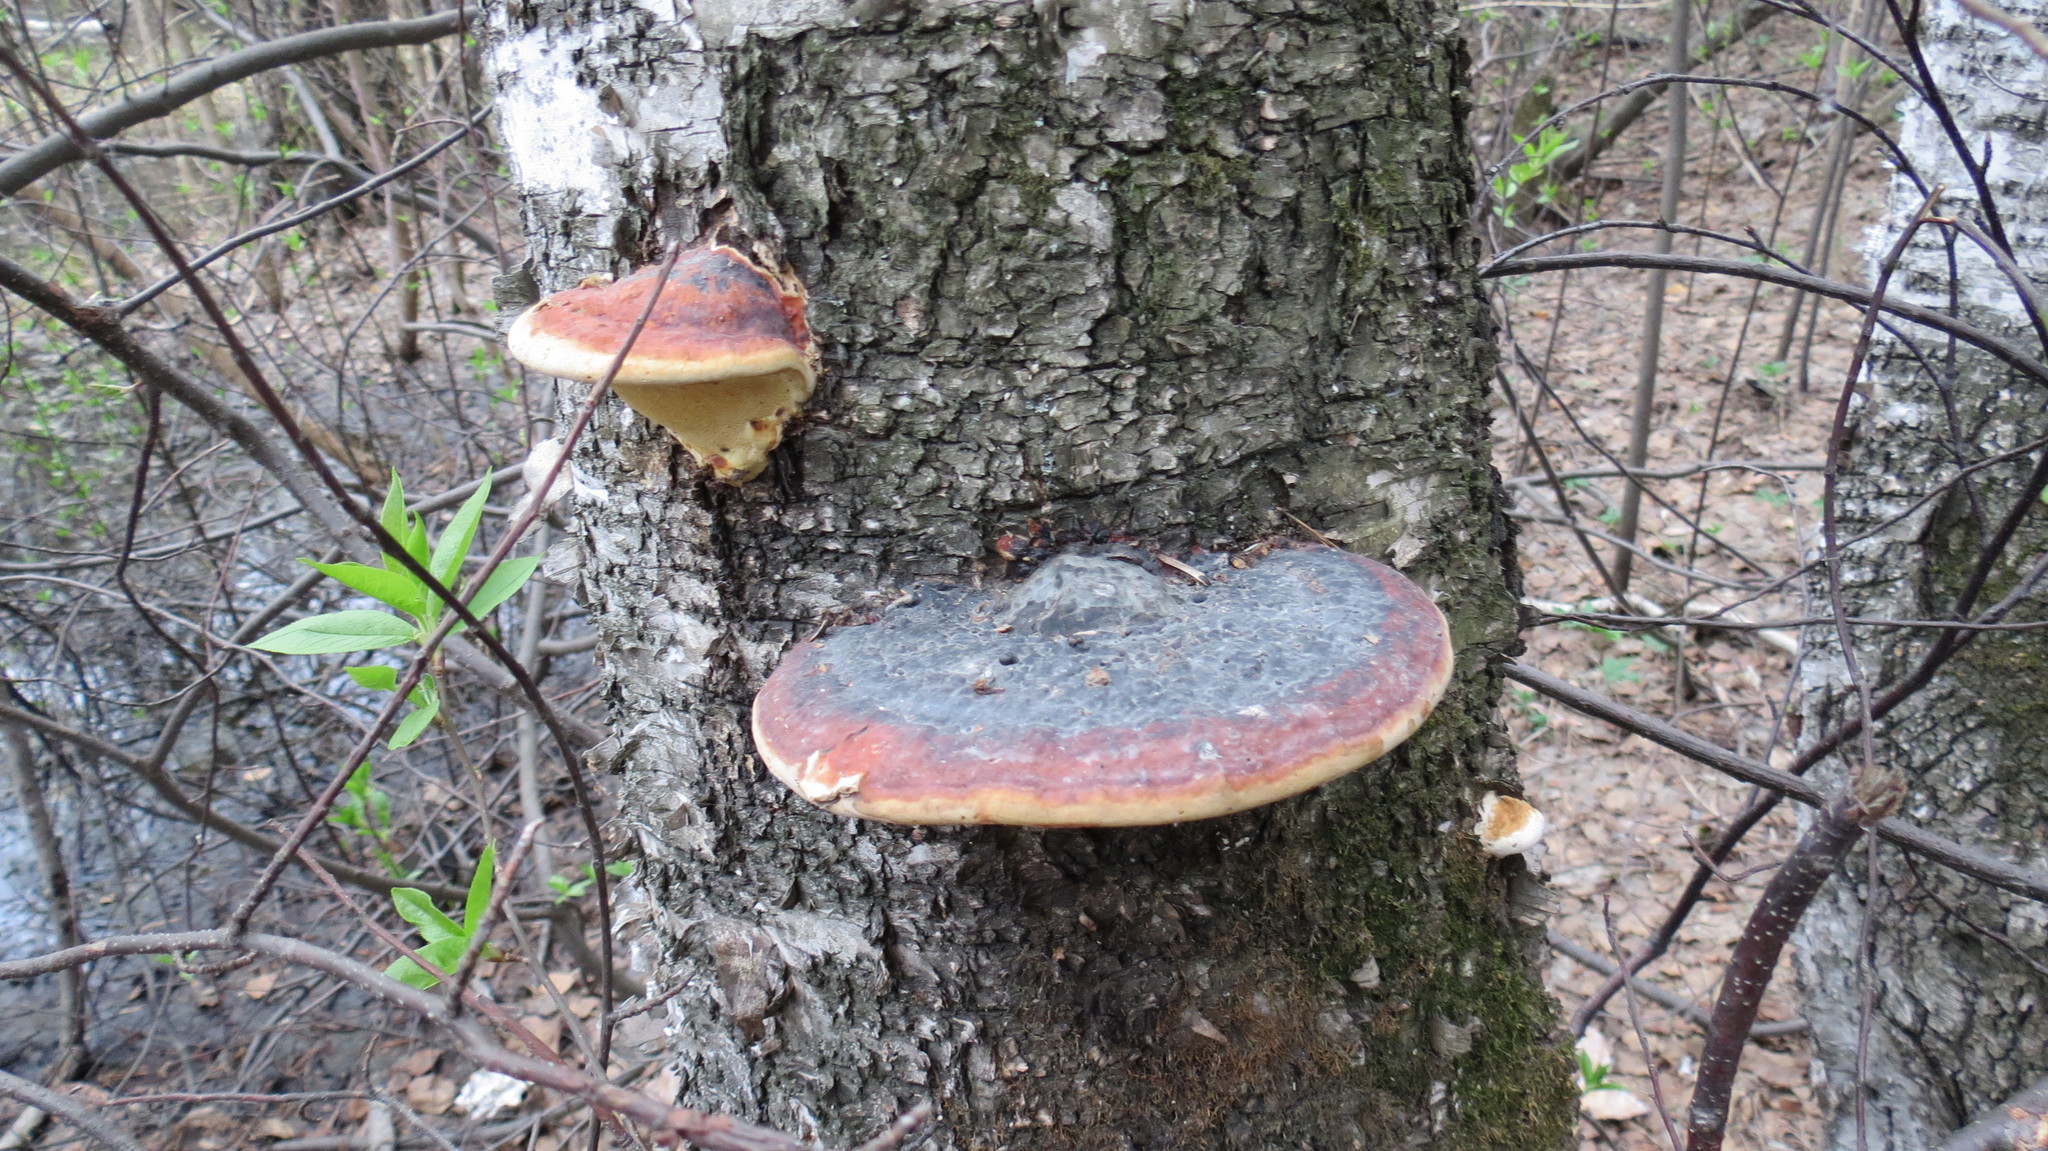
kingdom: Fungi
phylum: Basidiomycota
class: Agaricomycetes
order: Polyporales
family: Fomitopsidaceae
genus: Fomitopsis
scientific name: Fomitopsis pinicola
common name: Red-belted bracket
